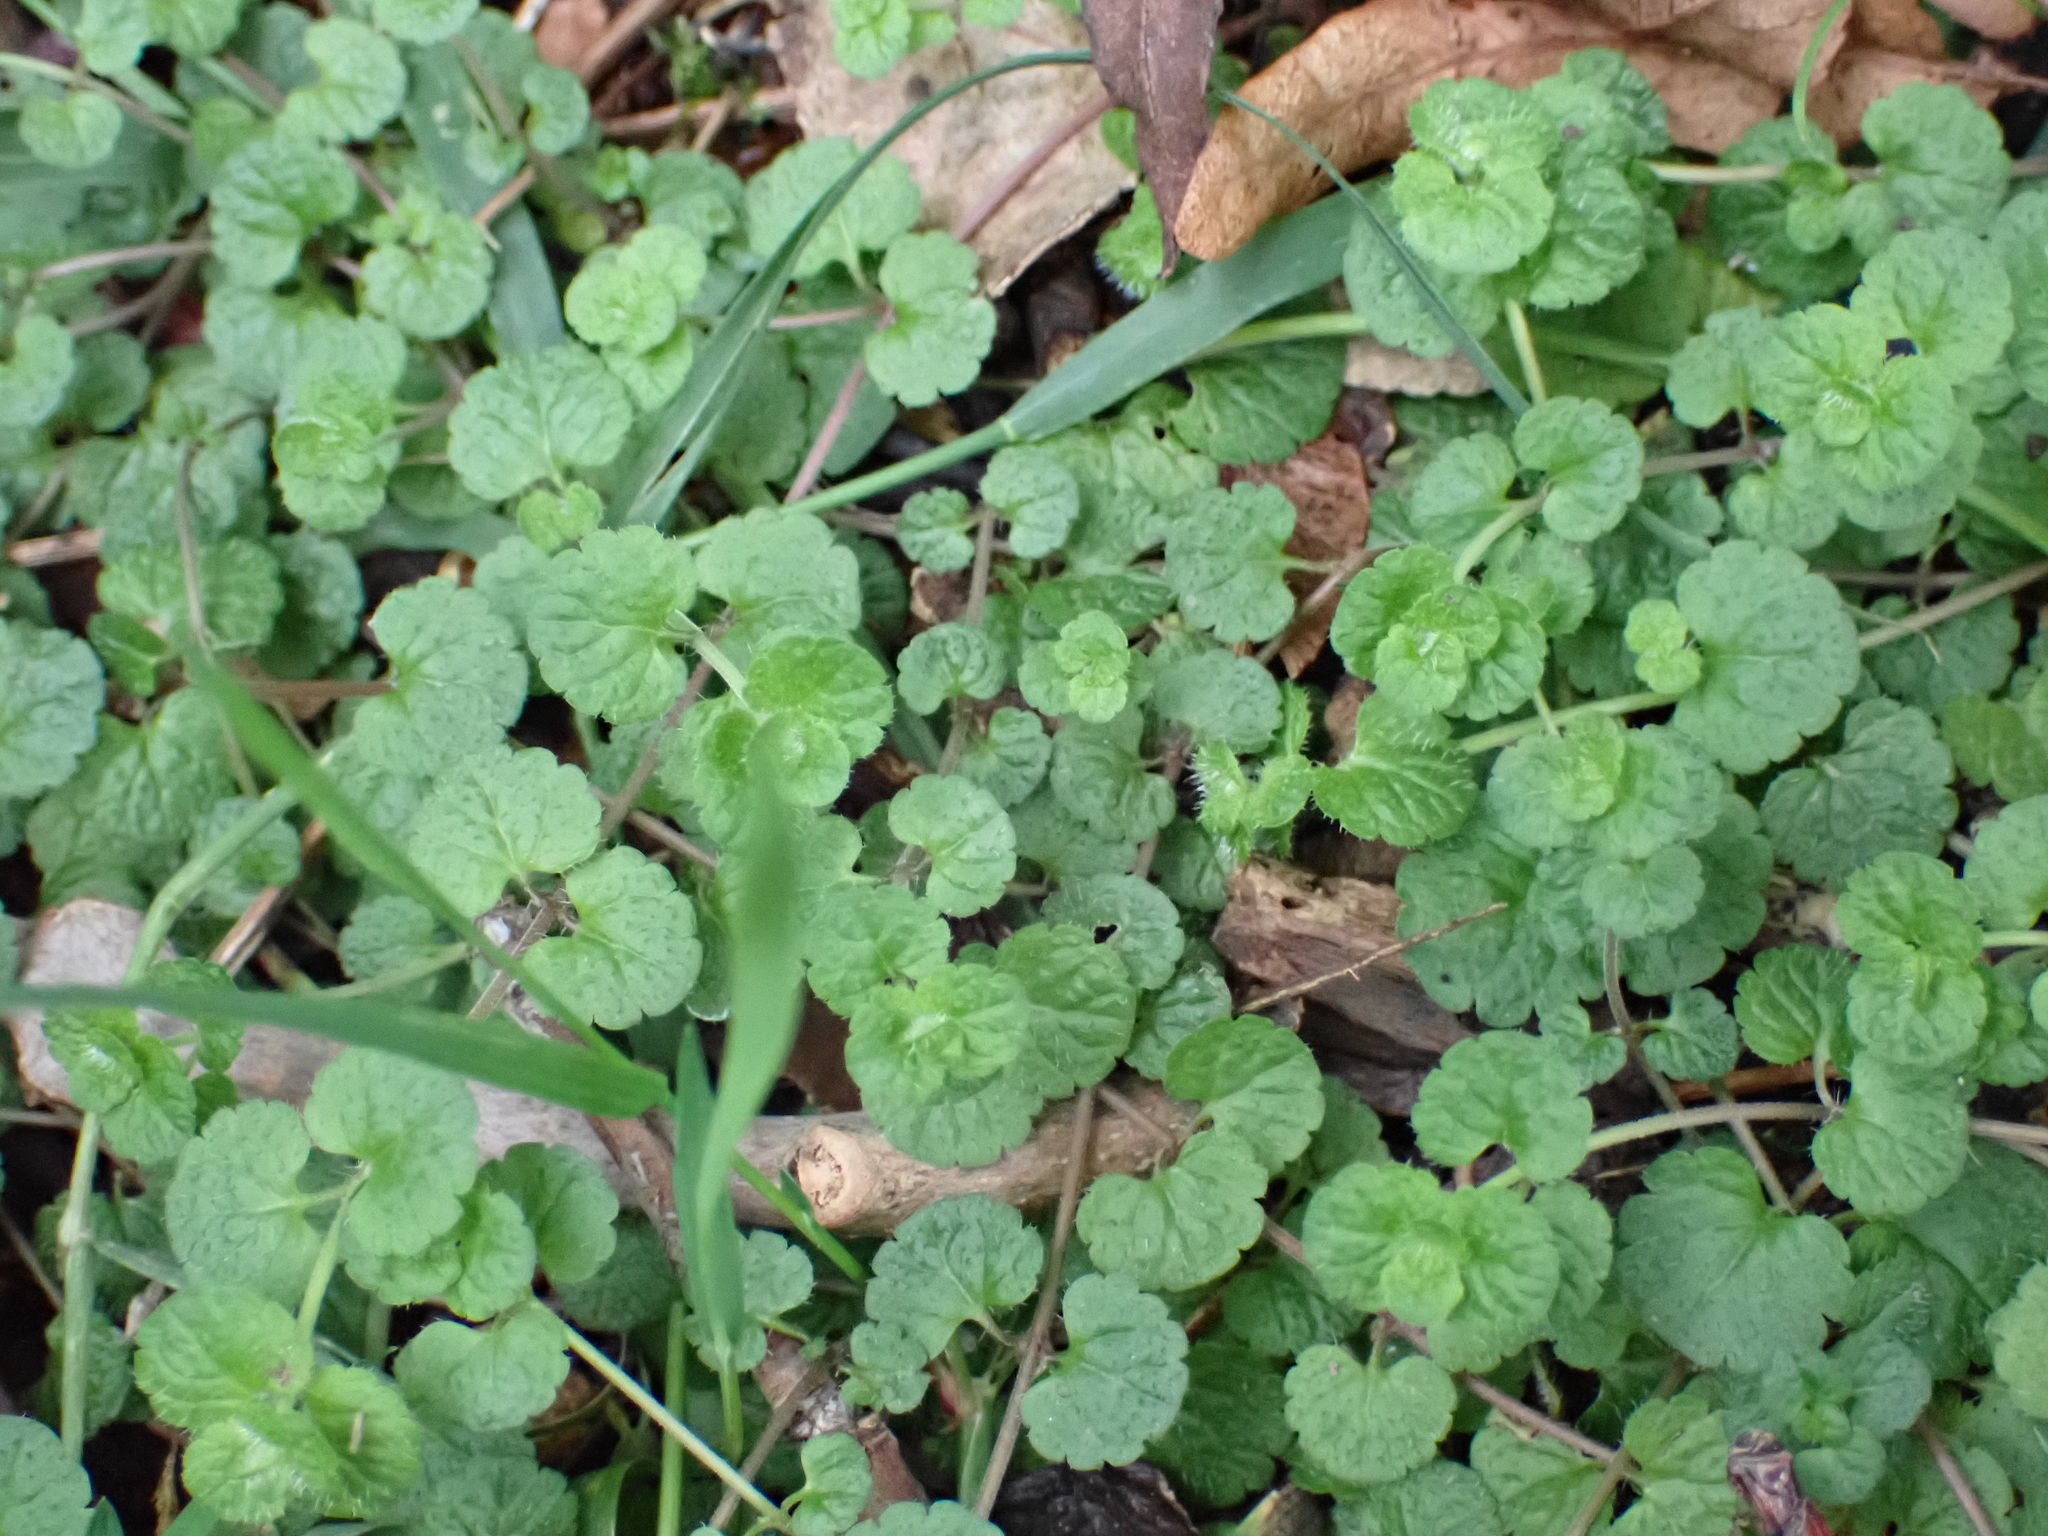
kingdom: Plantae
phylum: Tracheophyta
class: Magnoliopsida
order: Lamiales
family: Plantaginaceae
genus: Veronica
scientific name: Veronica filiformis
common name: Slender speedwell
